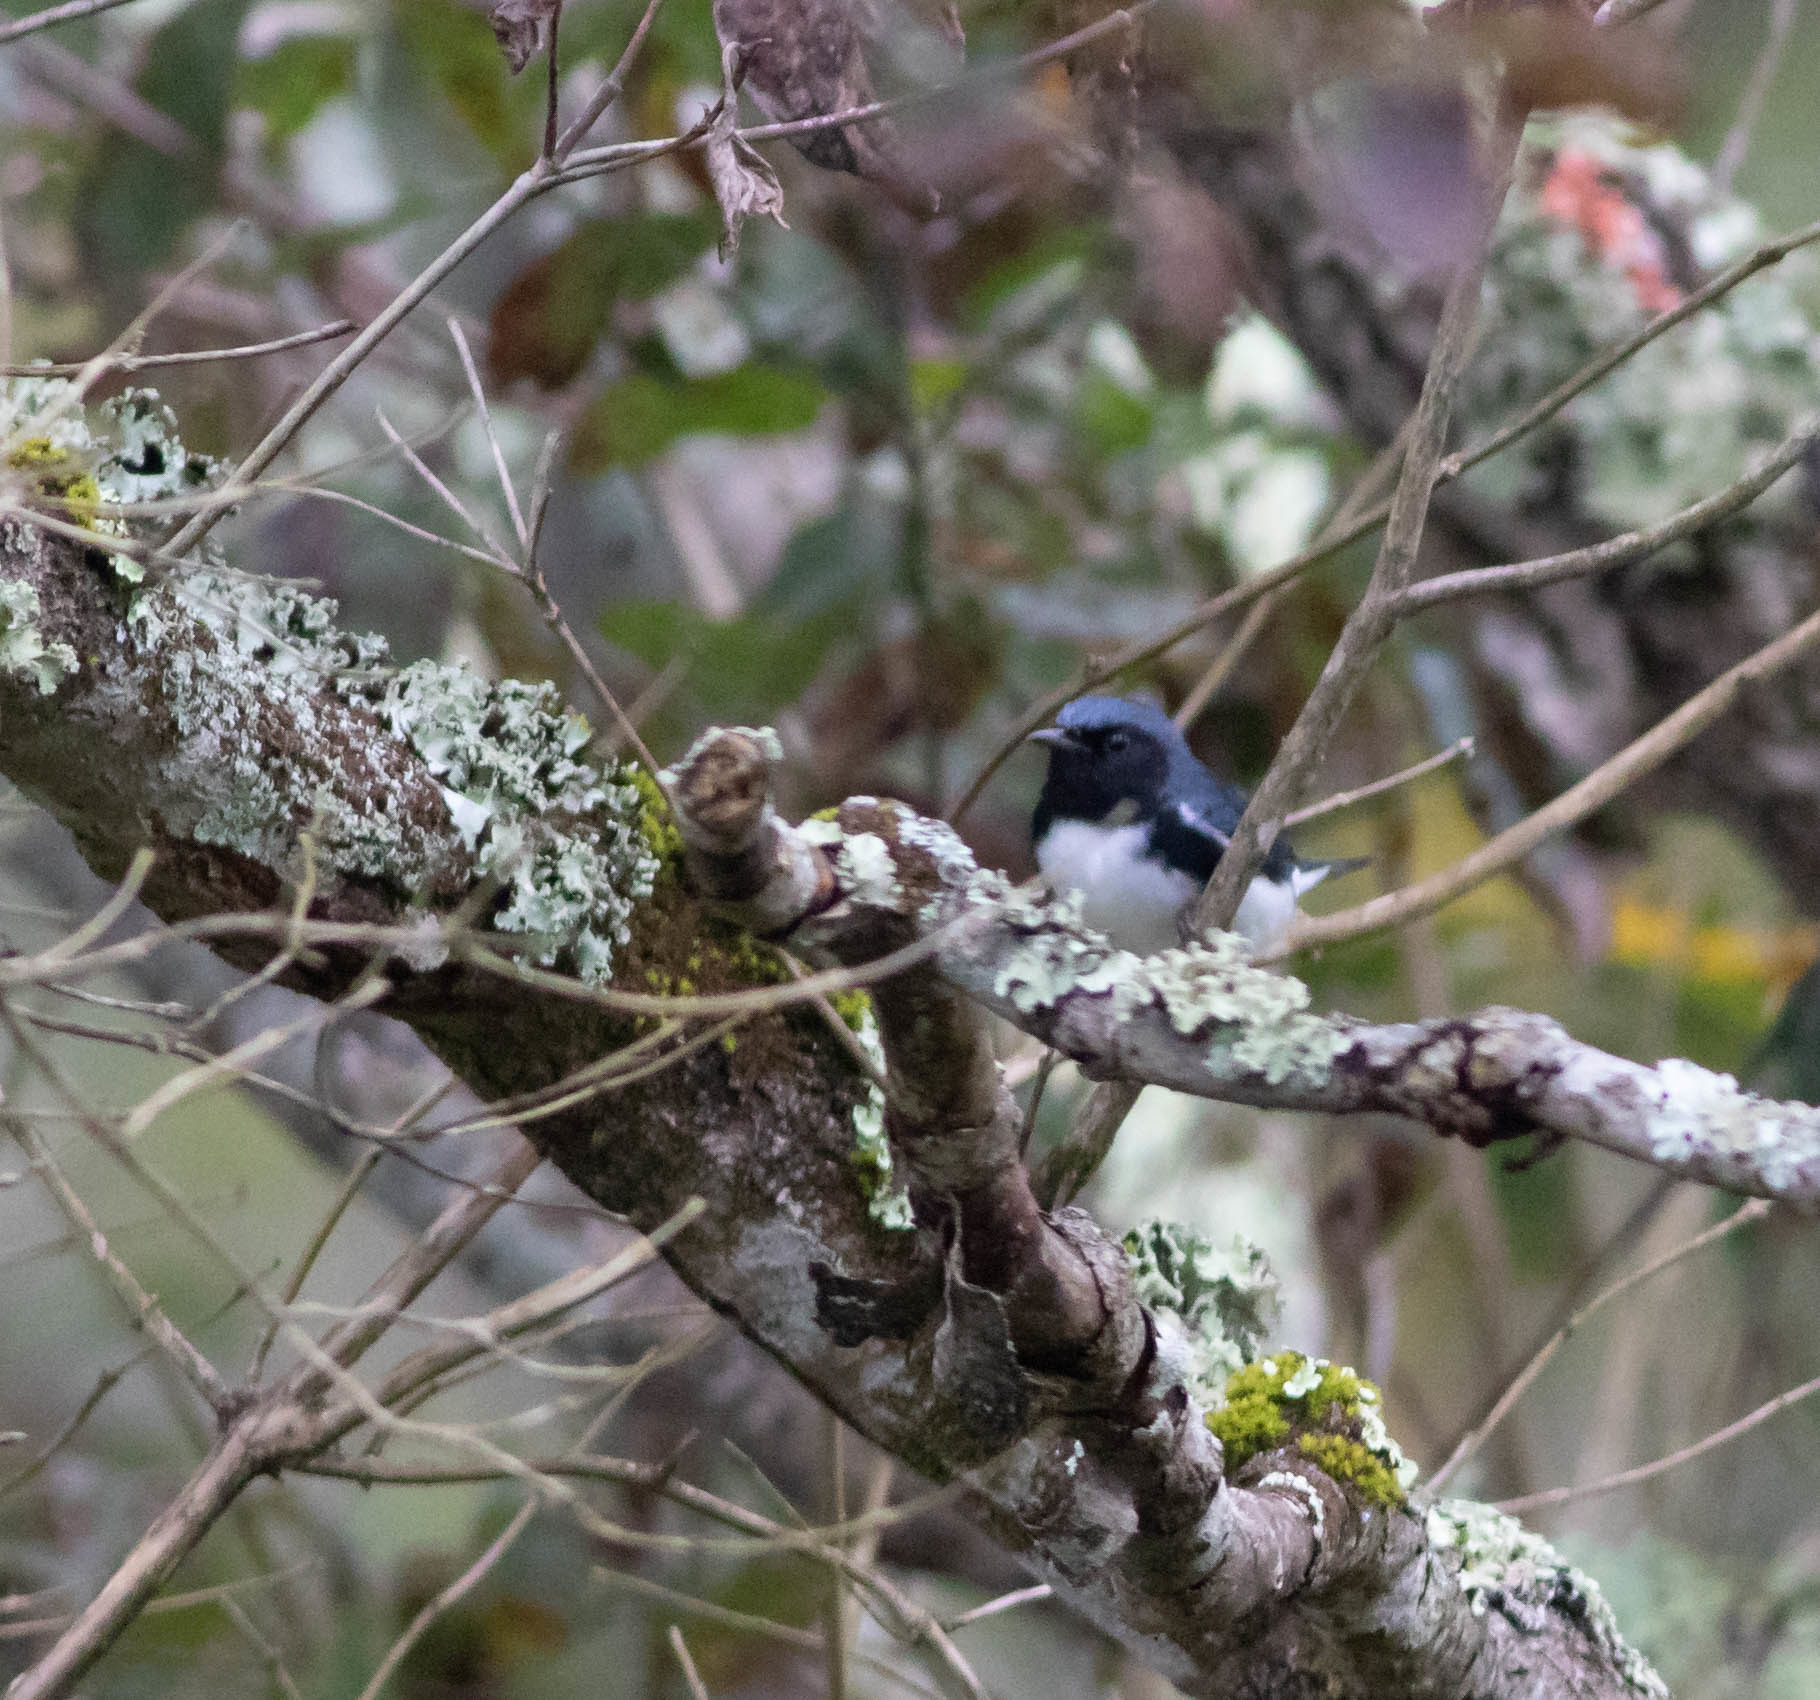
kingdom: Animalia
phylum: Chordata
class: Aves
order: Passeriformes
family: Parulidae
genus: Setophaga
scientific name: Setophaga caerulescens
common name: Black-throated blue warbler
